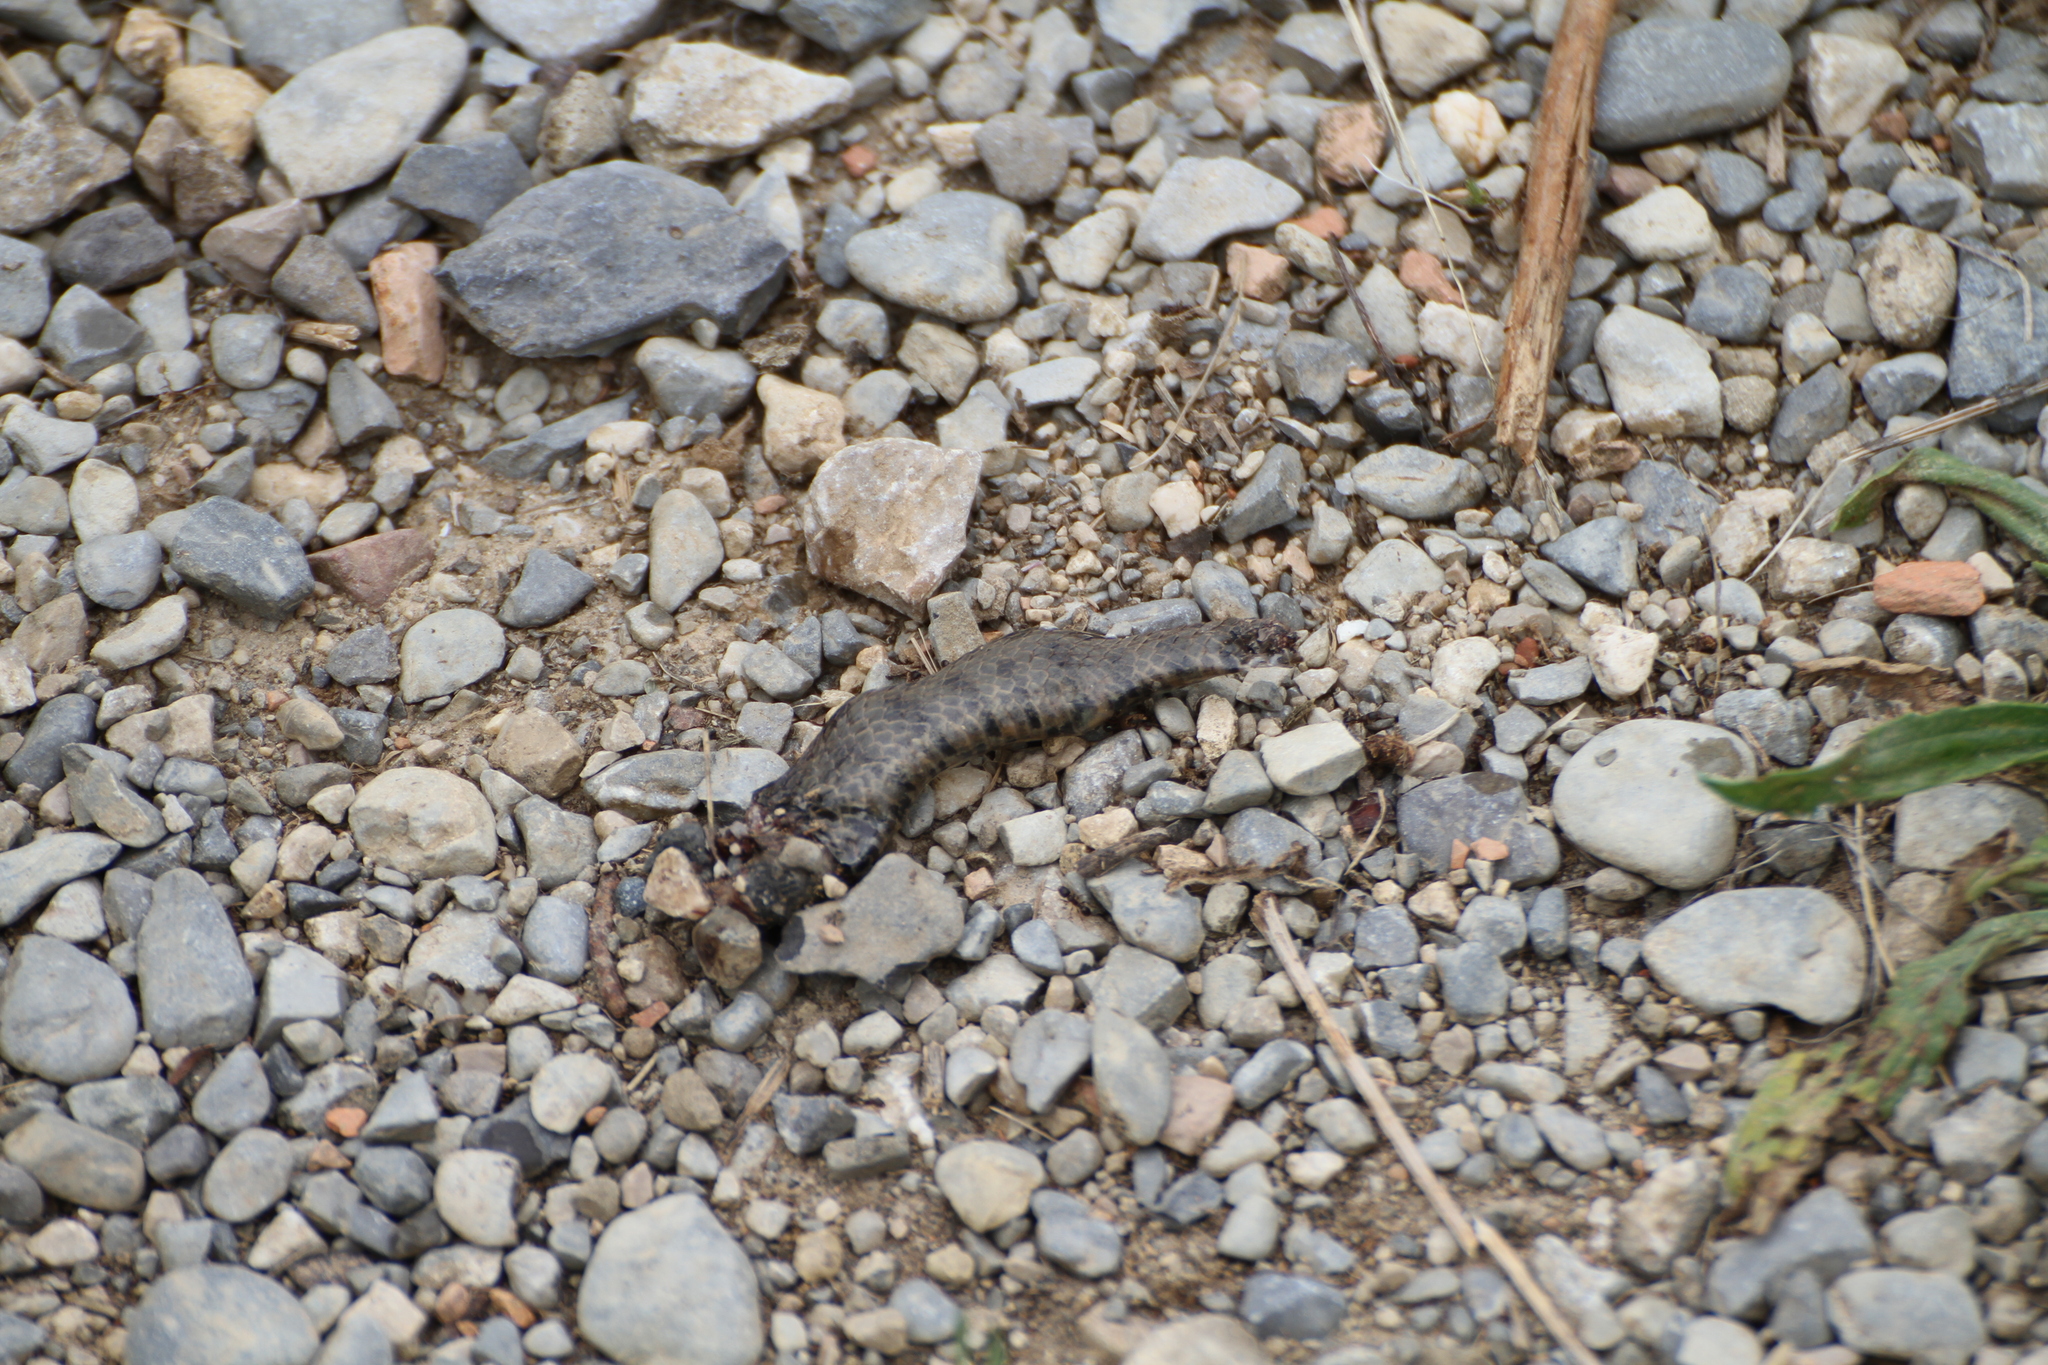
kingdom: Animalia
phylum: Chordata
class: Squamata
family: Colubridae
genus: Natrix
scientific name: Natrix maura
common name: Viperine water snake
